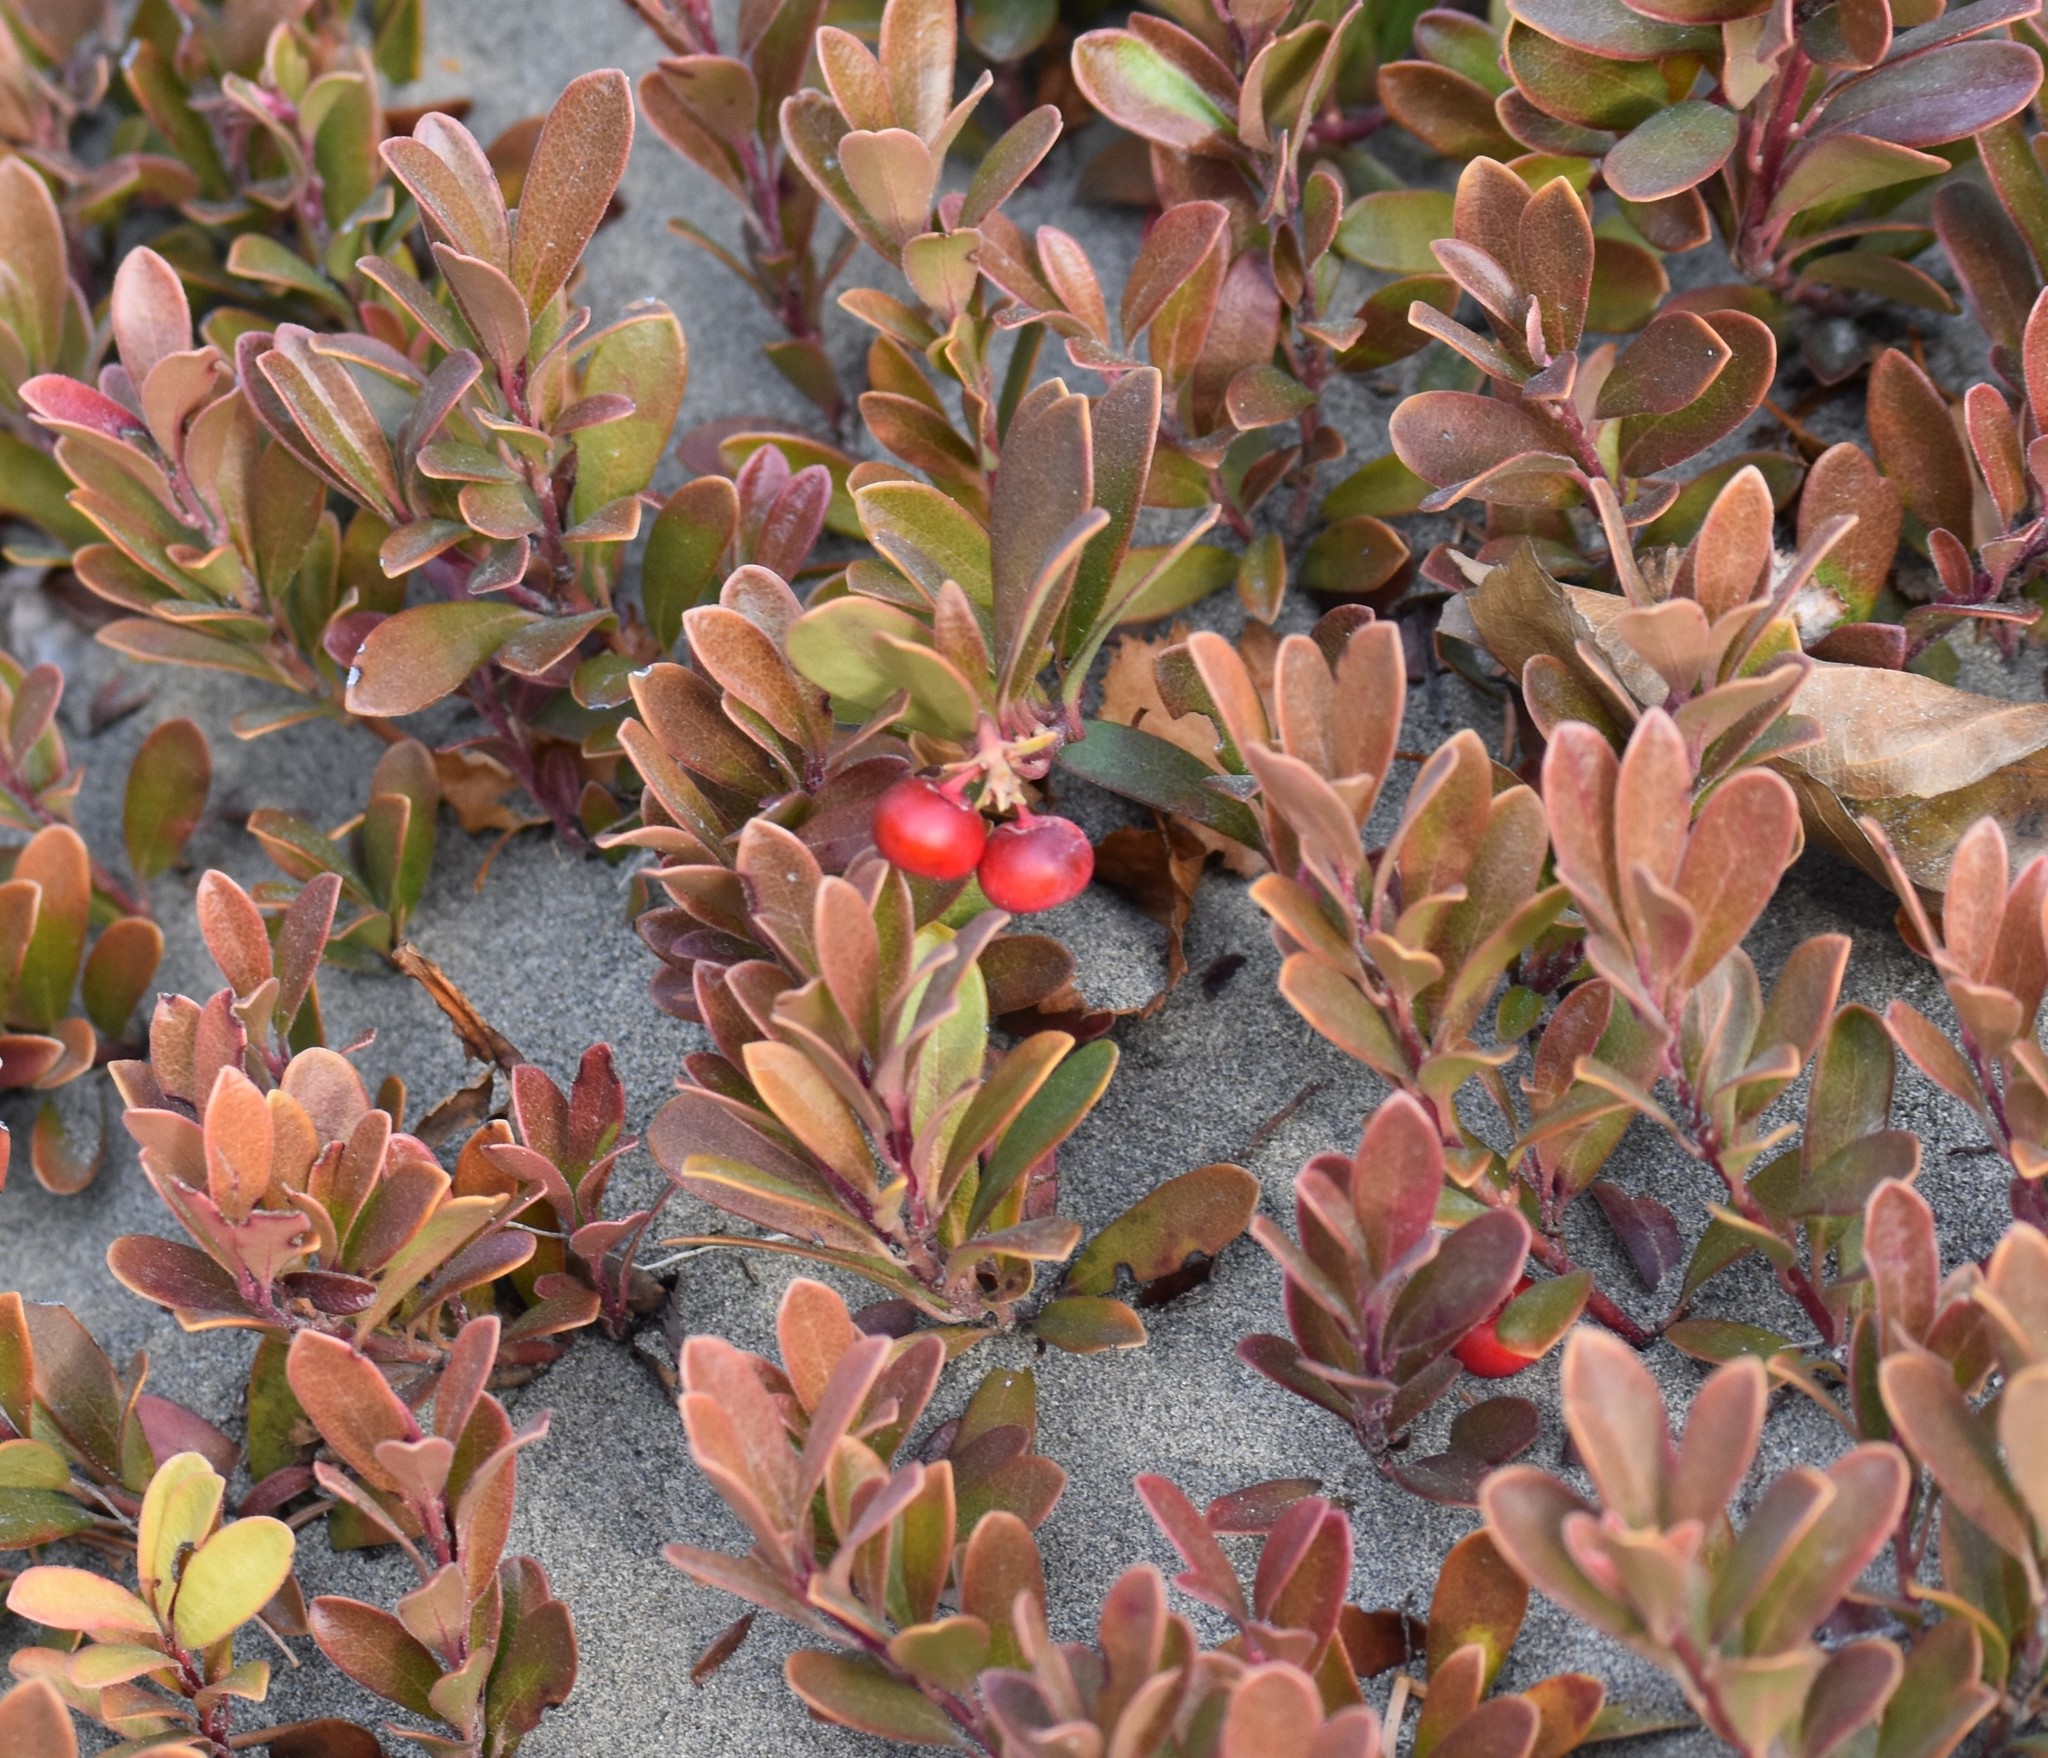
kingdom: Plantae
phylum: Tracheophyta
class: Magnoliopsida
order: Ericales
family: Ericaceae
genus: Arctostaphylos
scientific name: Arctostaphylos uva-ursi
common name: Bearberry
